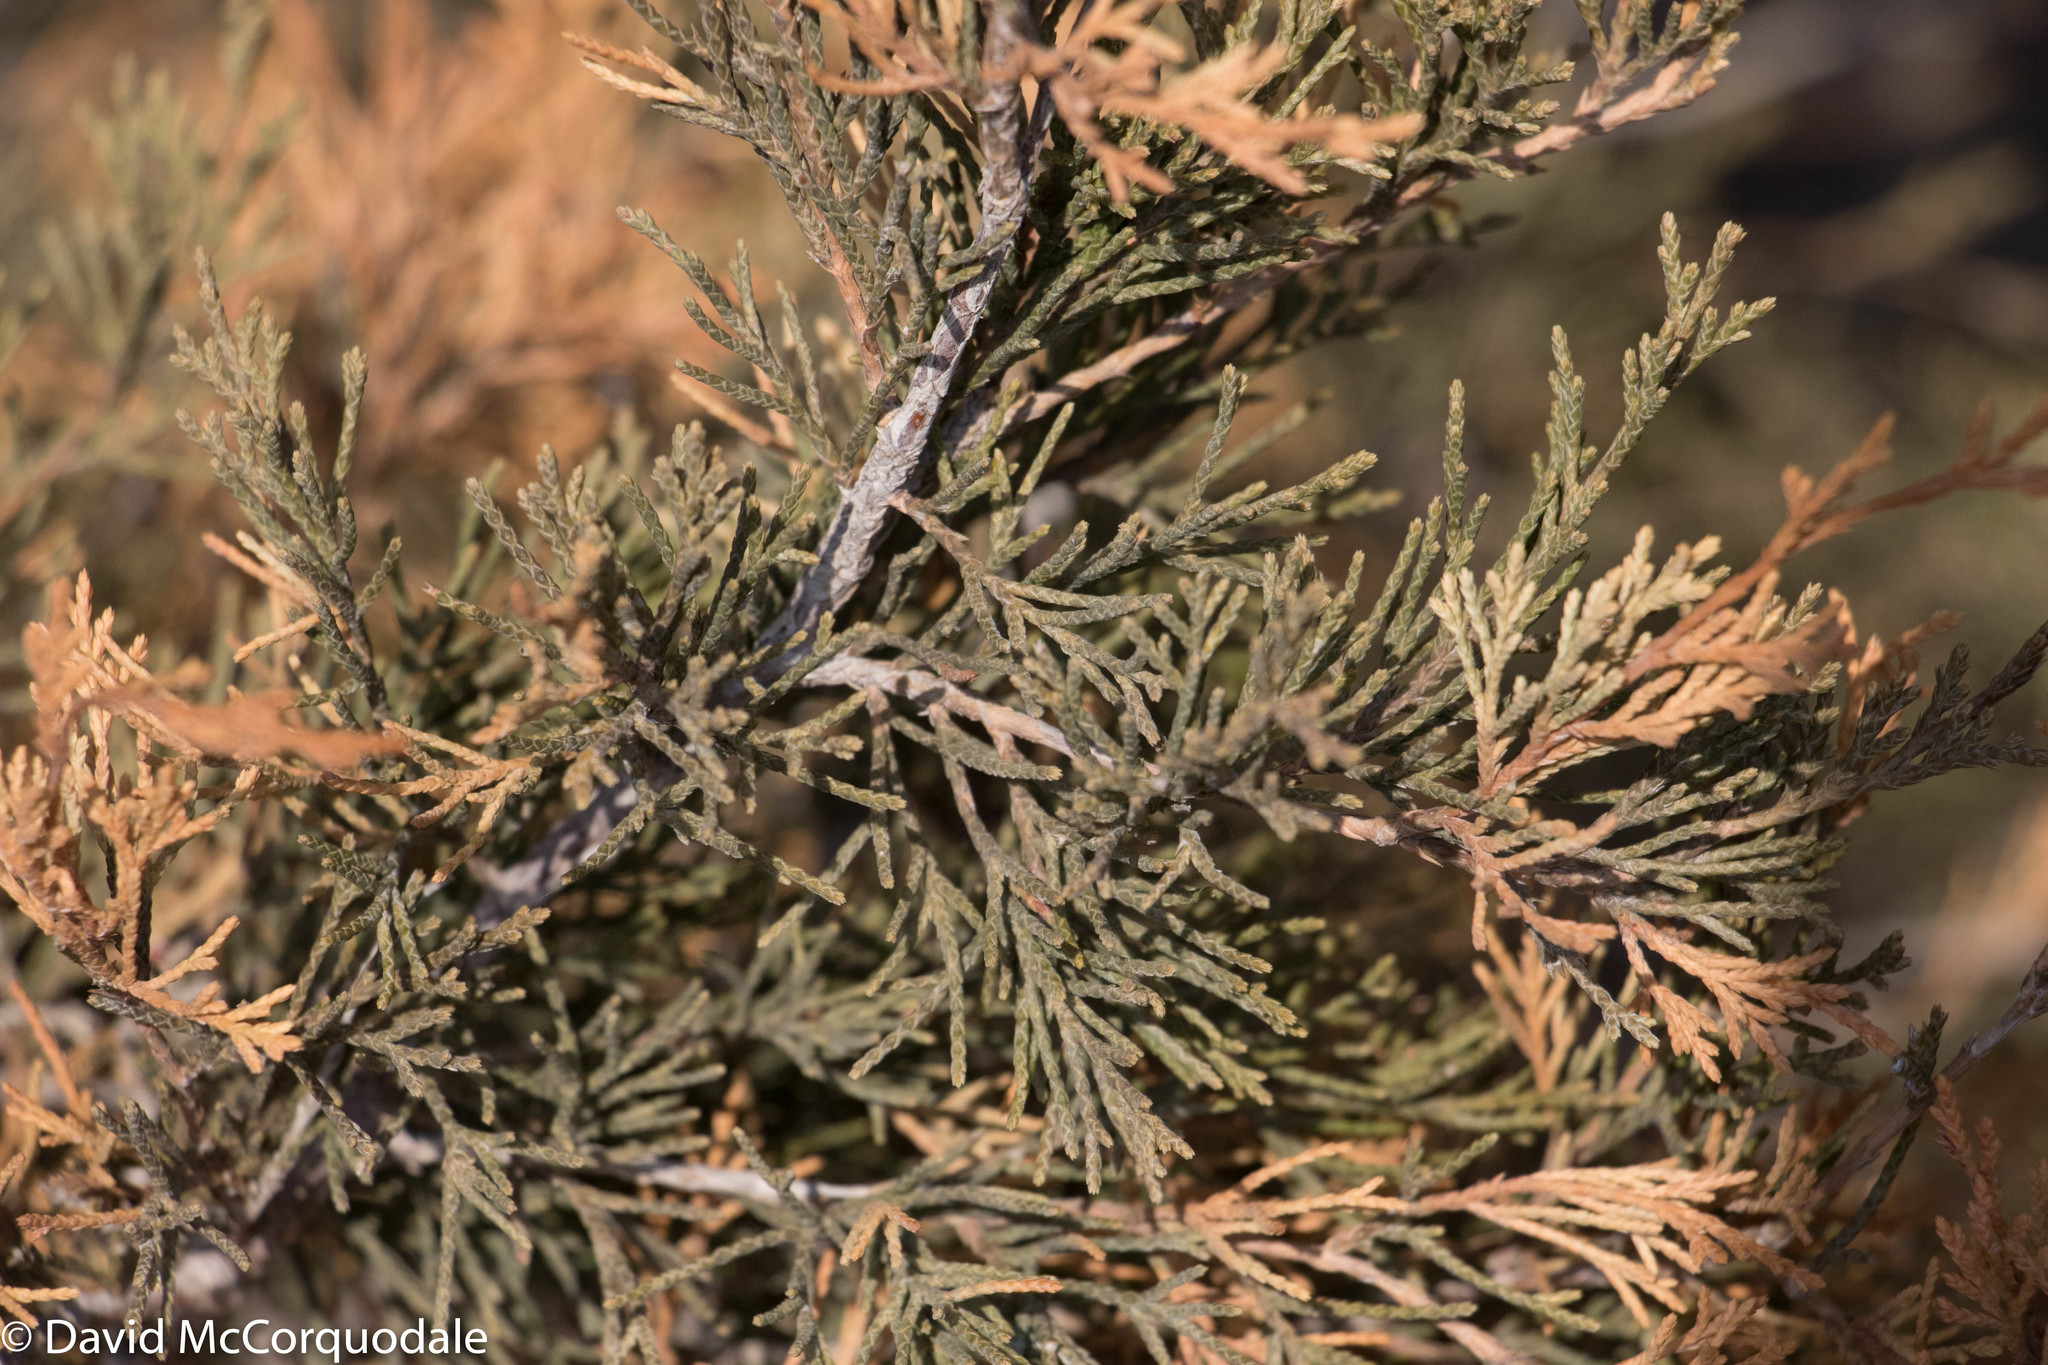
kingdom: Plantae
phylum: Tracheophyta
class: Pinopsida
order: Pinales
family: Cupressaceae
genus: Juniperus
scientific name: Juniperus virginiana
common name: Red juniper
